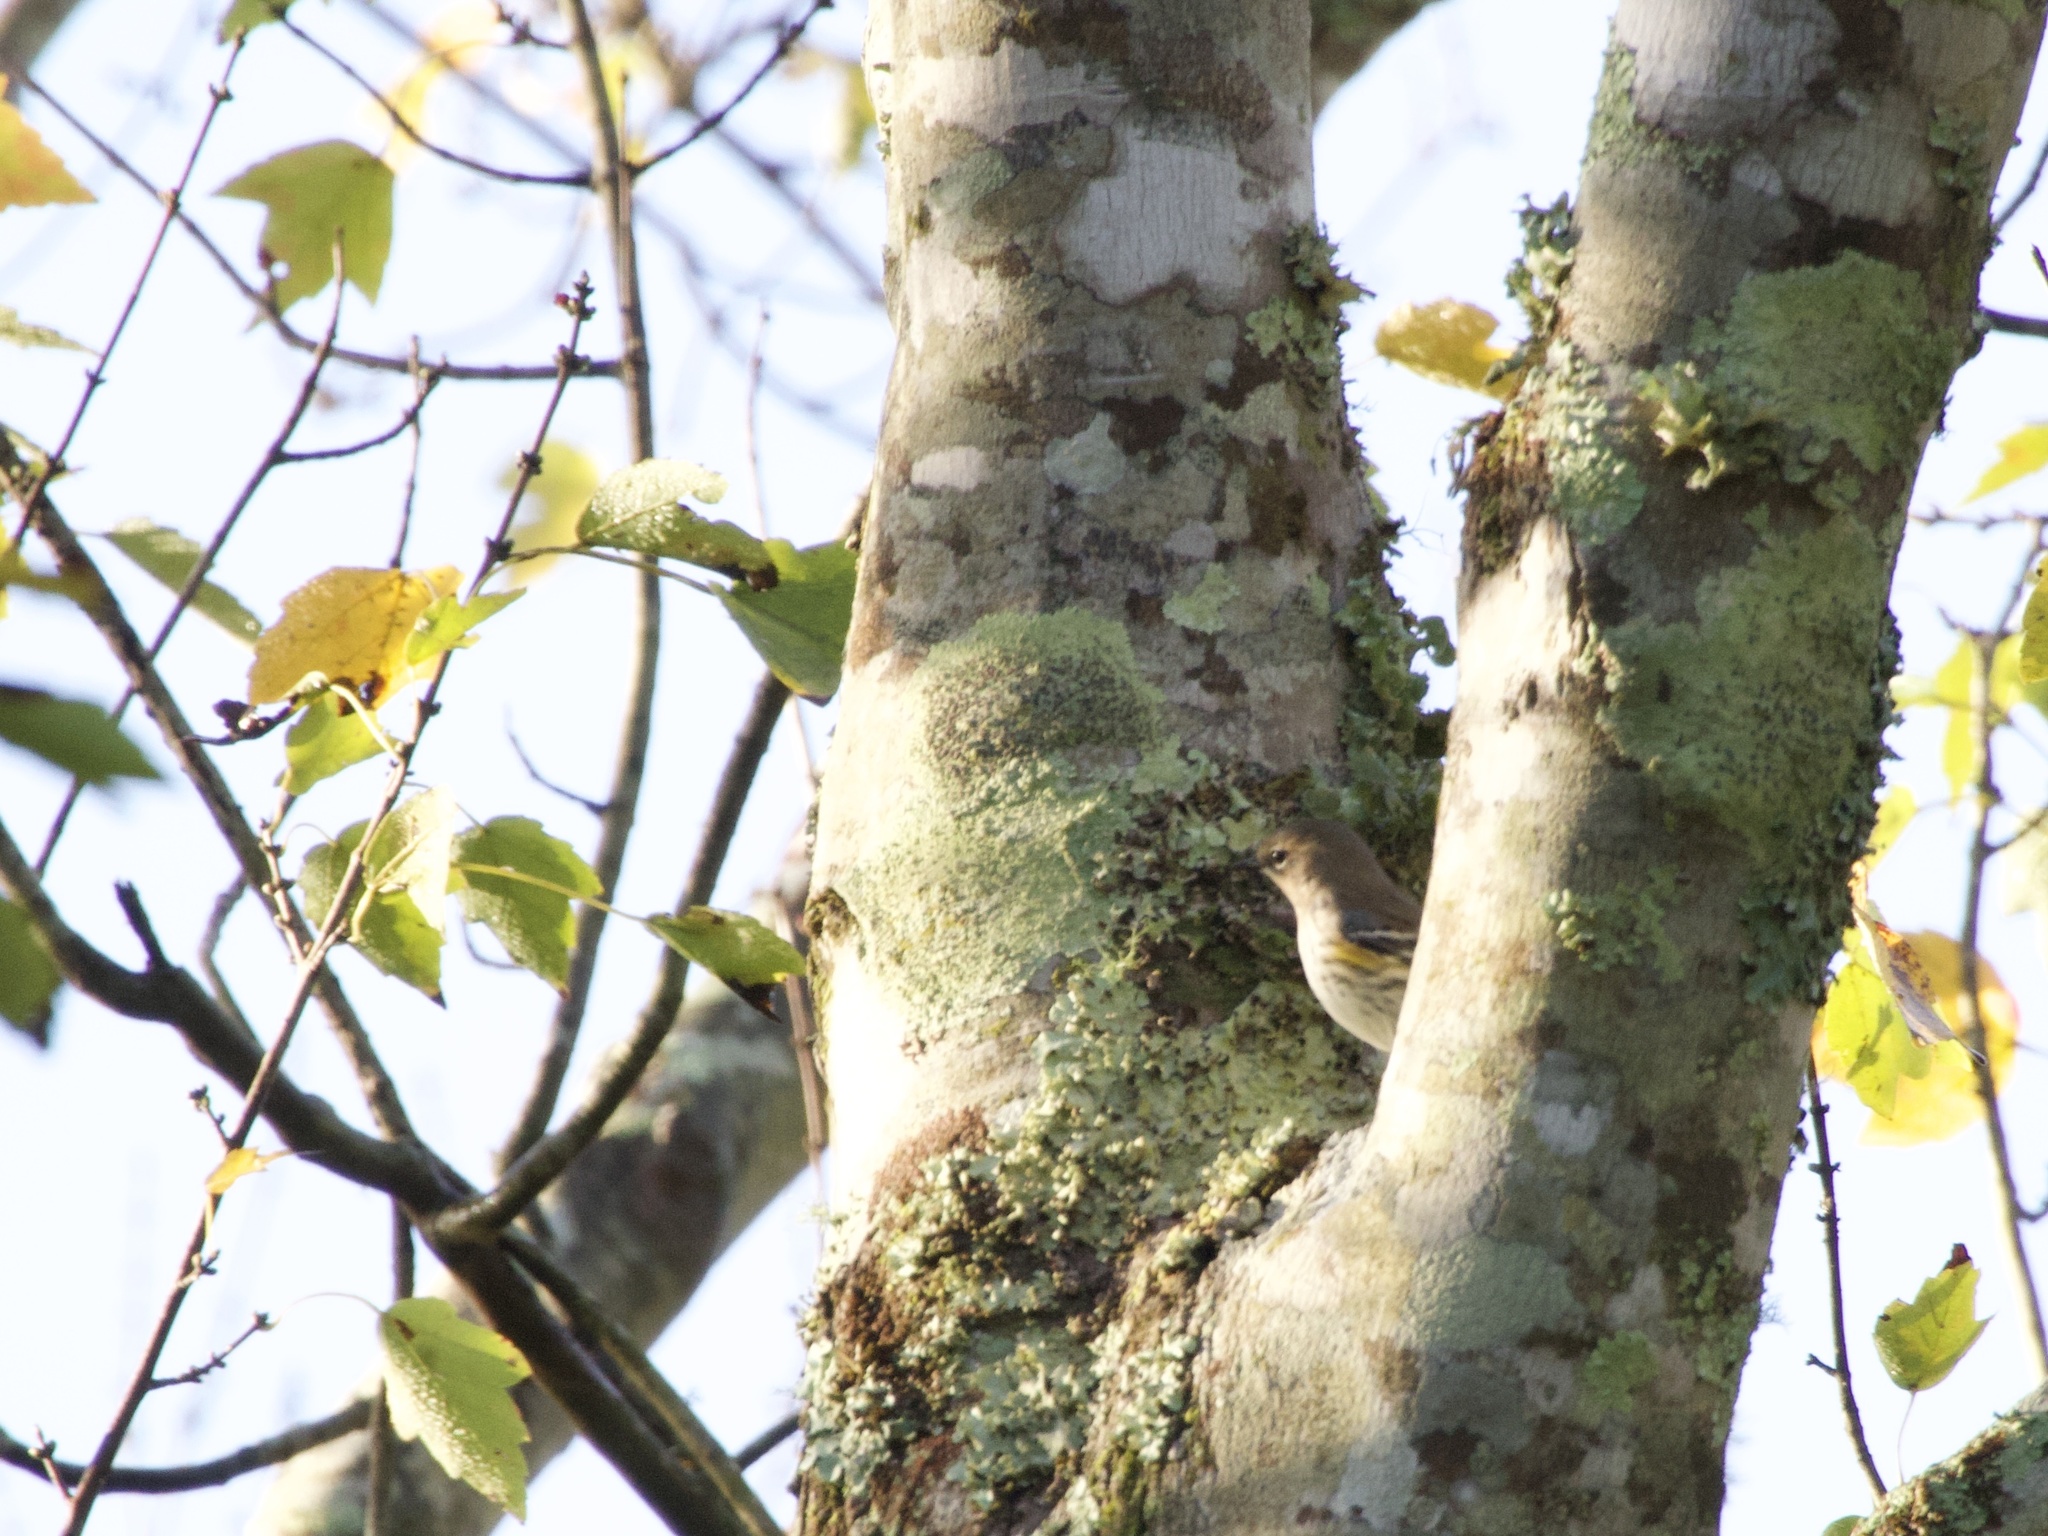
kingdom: Animalia
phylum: Chordata
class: Aves
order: Passeriformes
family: Parulidae
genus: Setophaga
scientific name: Setophaga coronata
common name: Myrtle warbler
